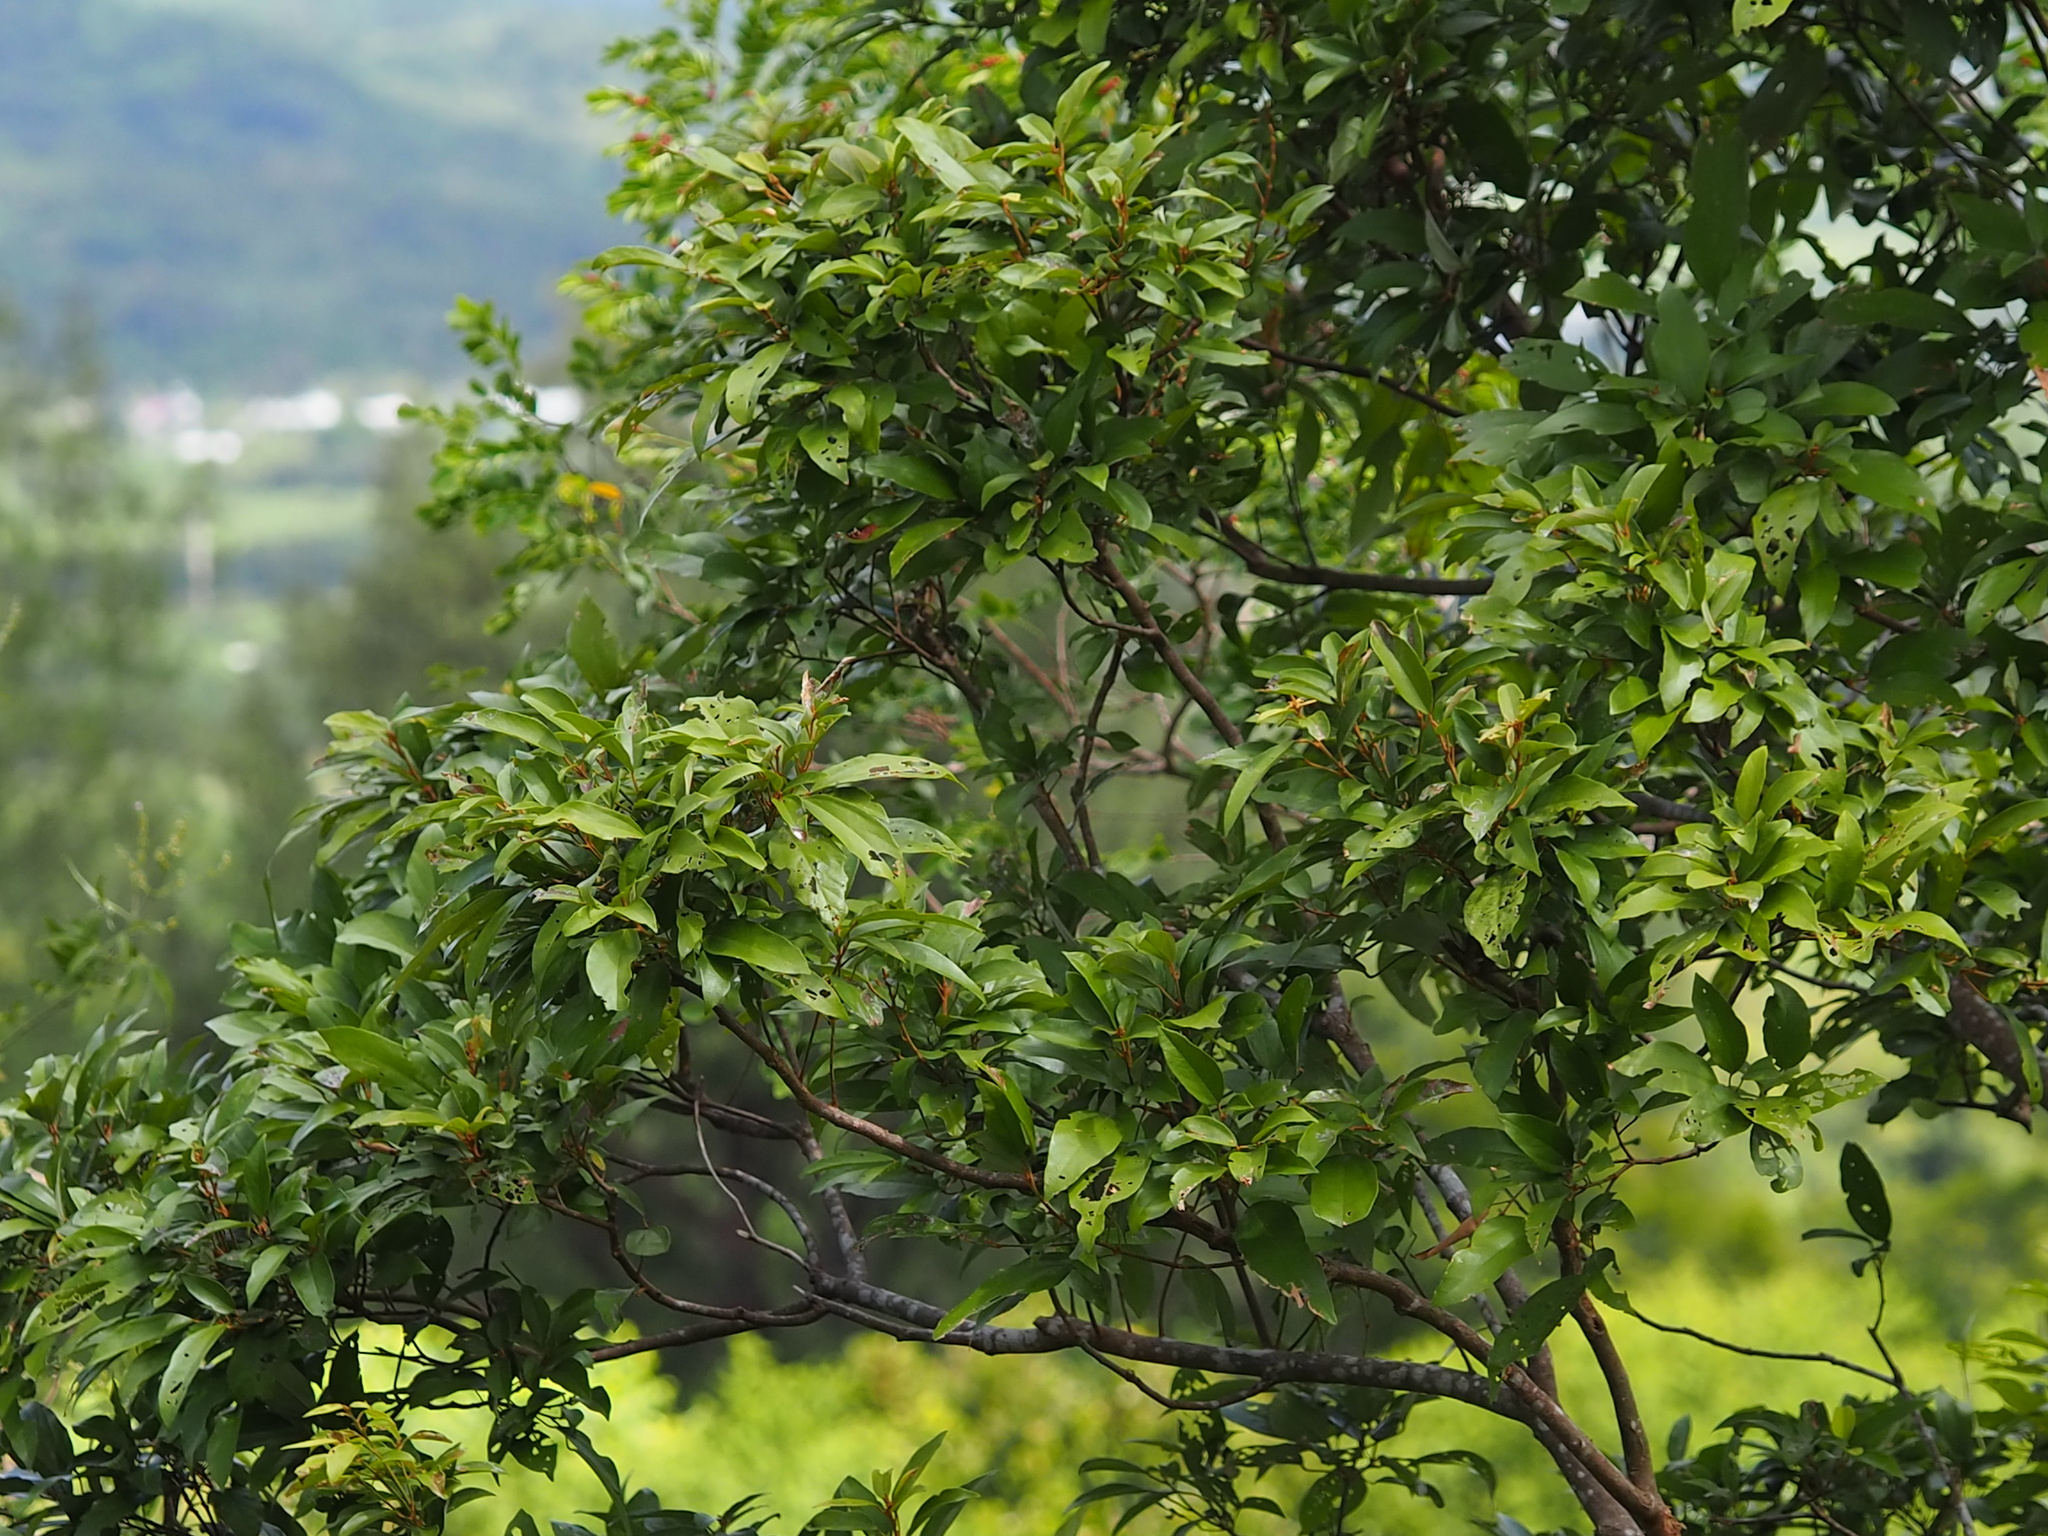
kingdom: Plantae
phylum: Tracheophyta
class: Magnoliopsida
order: Malpighiales
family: Euphorbiaceae
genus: Mallotus
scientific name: Mallotus philippensis
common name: Kamala tree
